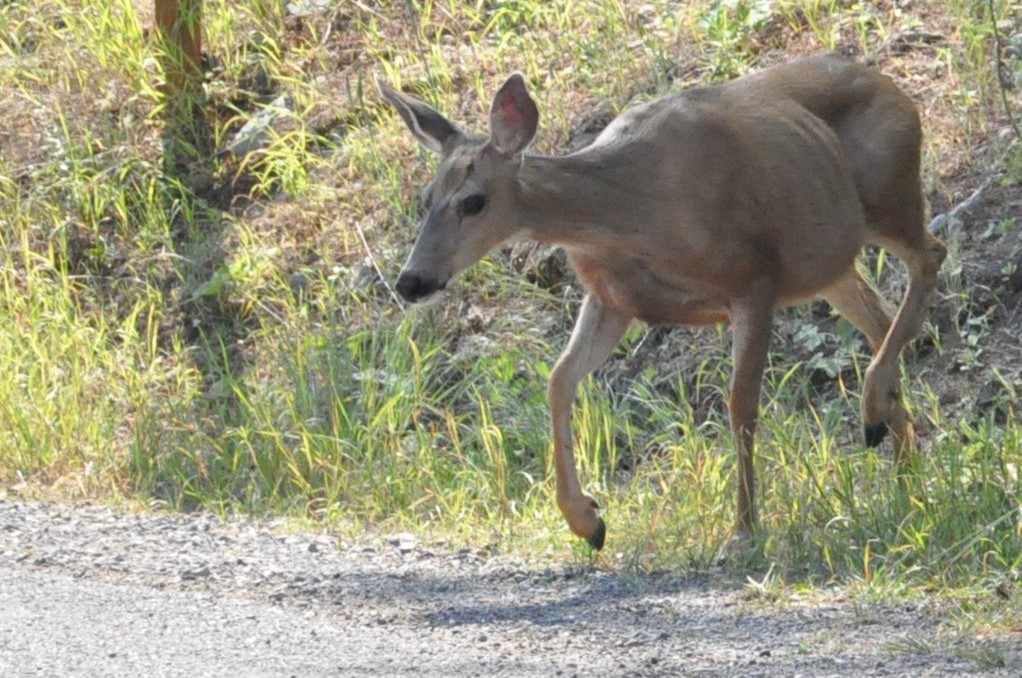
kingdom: Animalia
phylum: Chordata
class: Mammalia
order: Artiodactyla
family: Cervidae
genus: Odocoileus
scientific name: Odocoileus hemionus
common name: Mule deer
